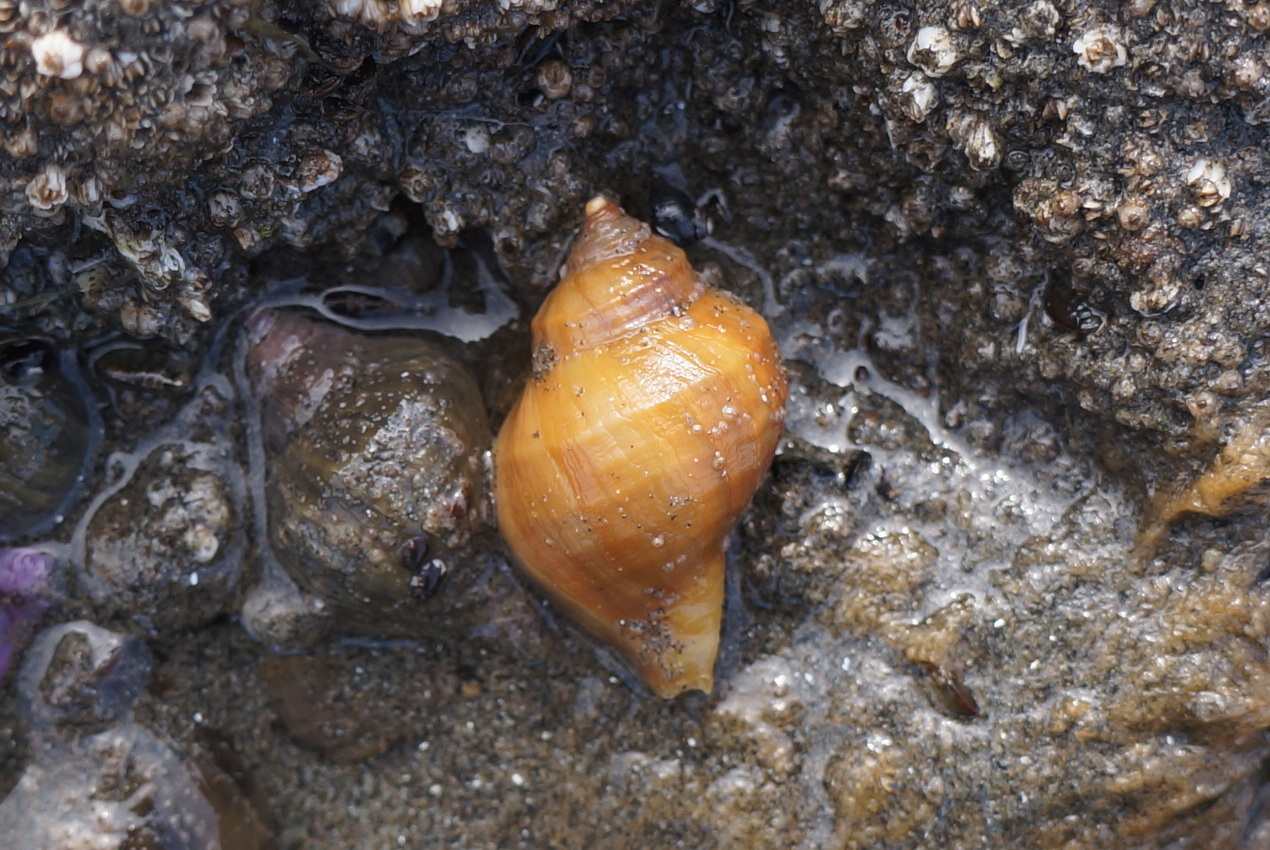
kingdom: Animalia
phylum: Mollusca
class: Gastropoda
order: Neogastropoda
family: Muricidae
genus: Nucella
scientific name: Nucella lamellosa
